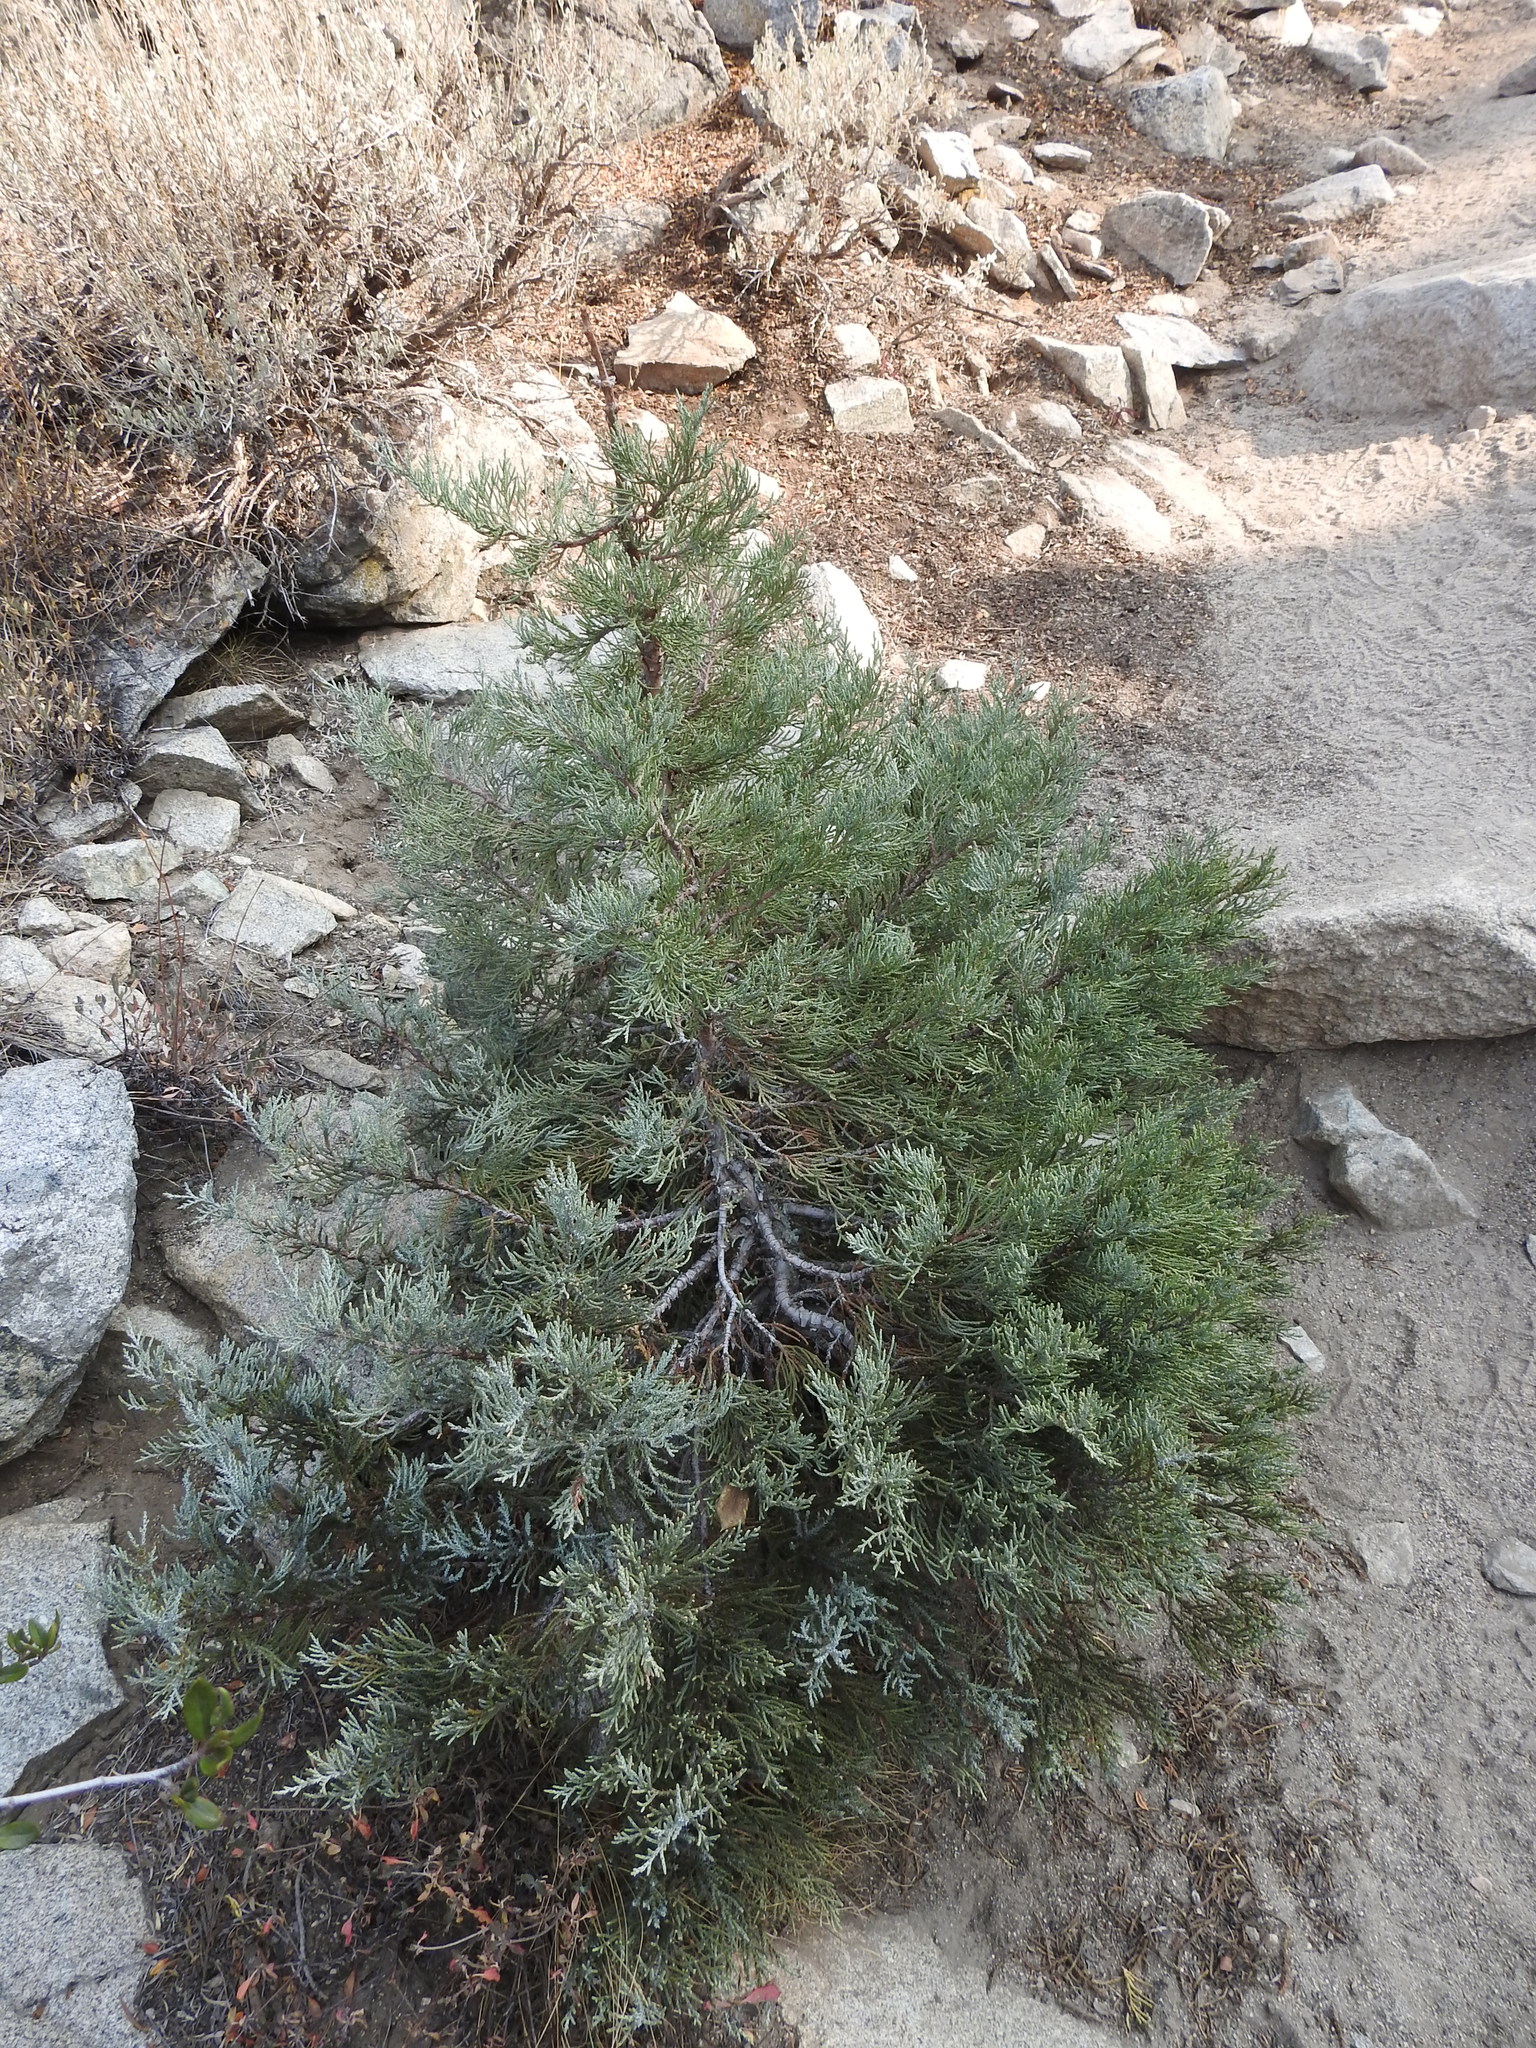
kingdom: Plantae
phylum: Tracheophyta
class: Pinopsida
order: Pinales
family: Cupressaceae
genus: Juniperus
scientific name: Juniperus occidentalis
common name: Western juniper
